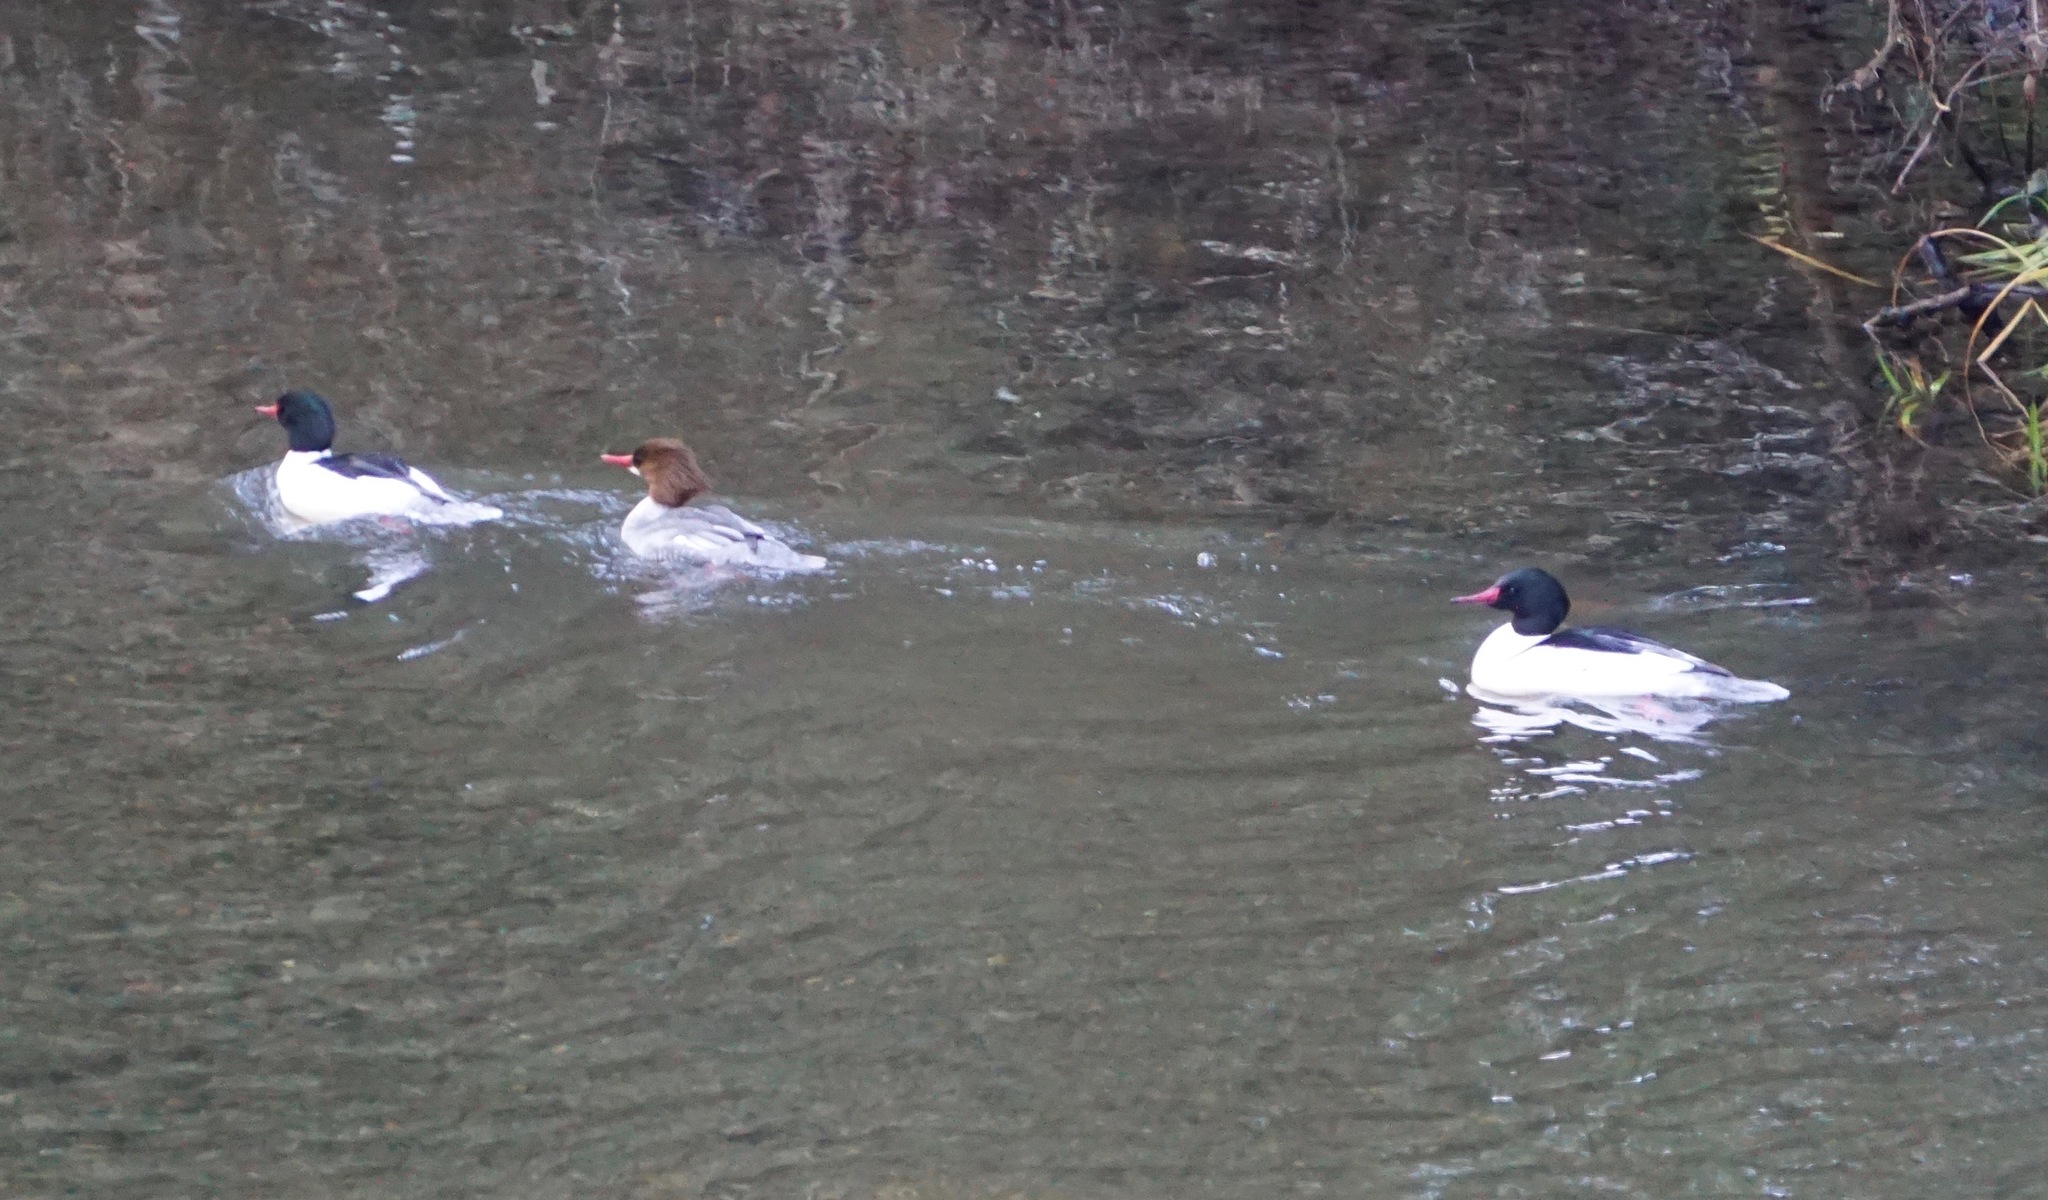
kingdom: Animalia
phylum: Chordata
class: Aves
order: Anseriformes
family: Anatidae
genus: Mergus
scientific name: Mergus merganser
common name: Common merganser
